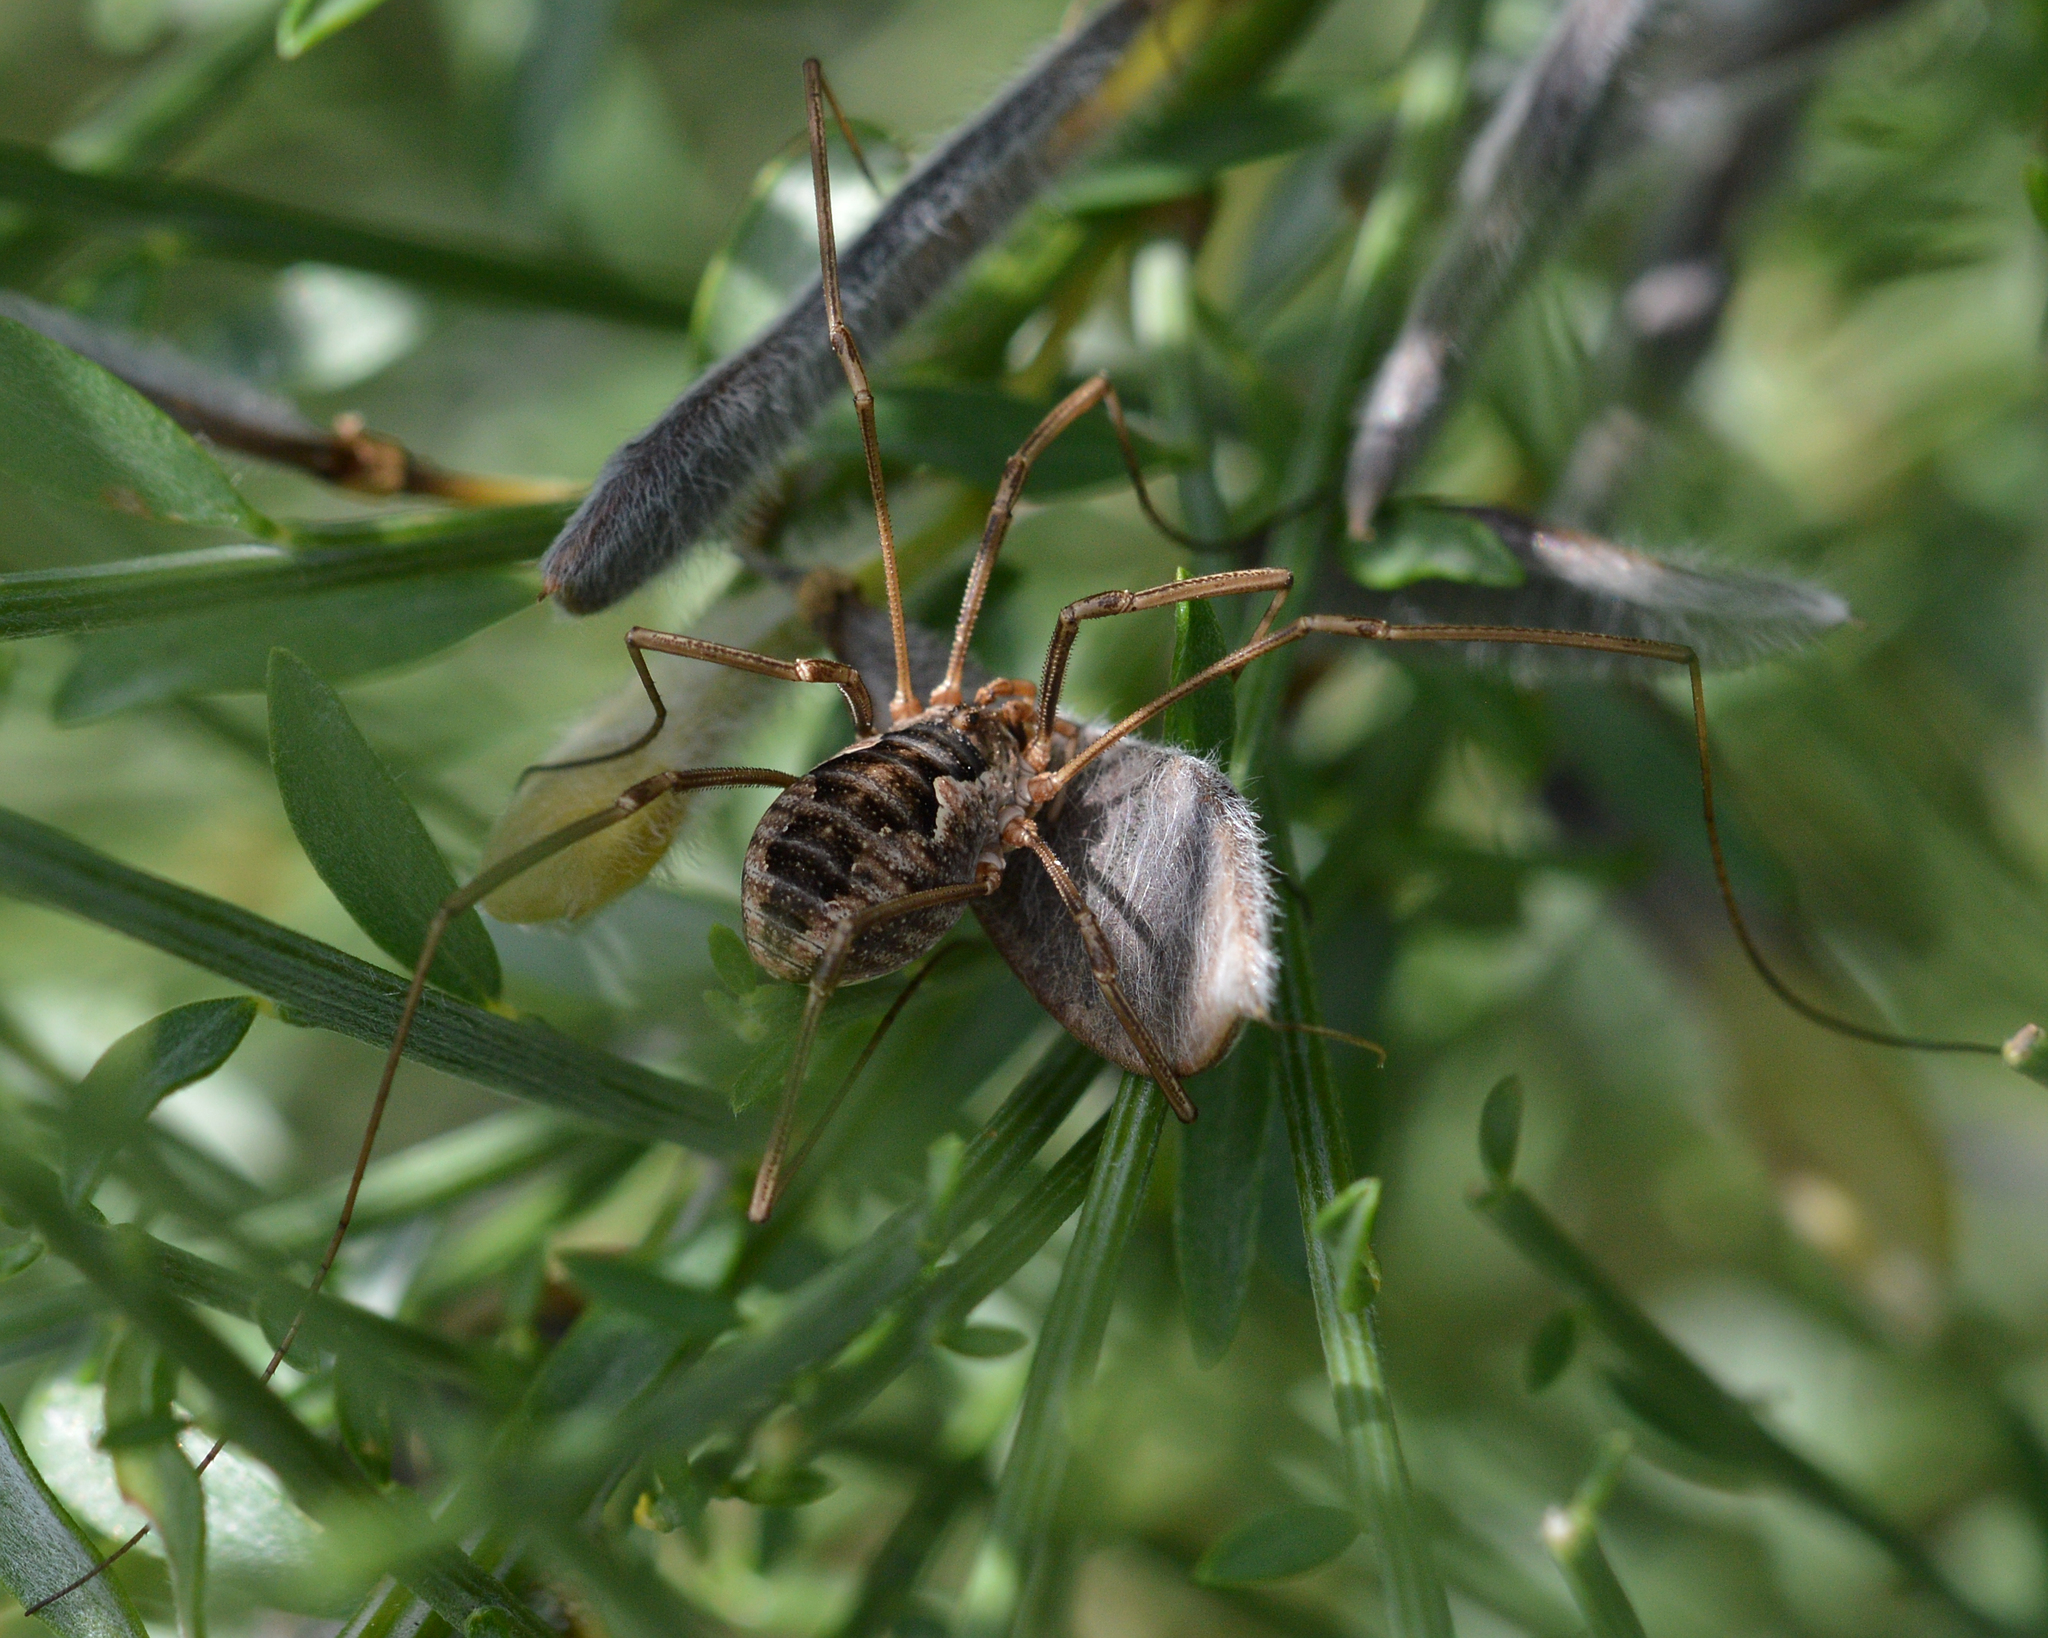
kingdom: Animalia
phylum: Arthropoda
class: Arachnida
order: Opiliones
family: Phalangiidae
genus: Phalangium
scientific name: Phalangium opilio
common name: Daddy longleg
